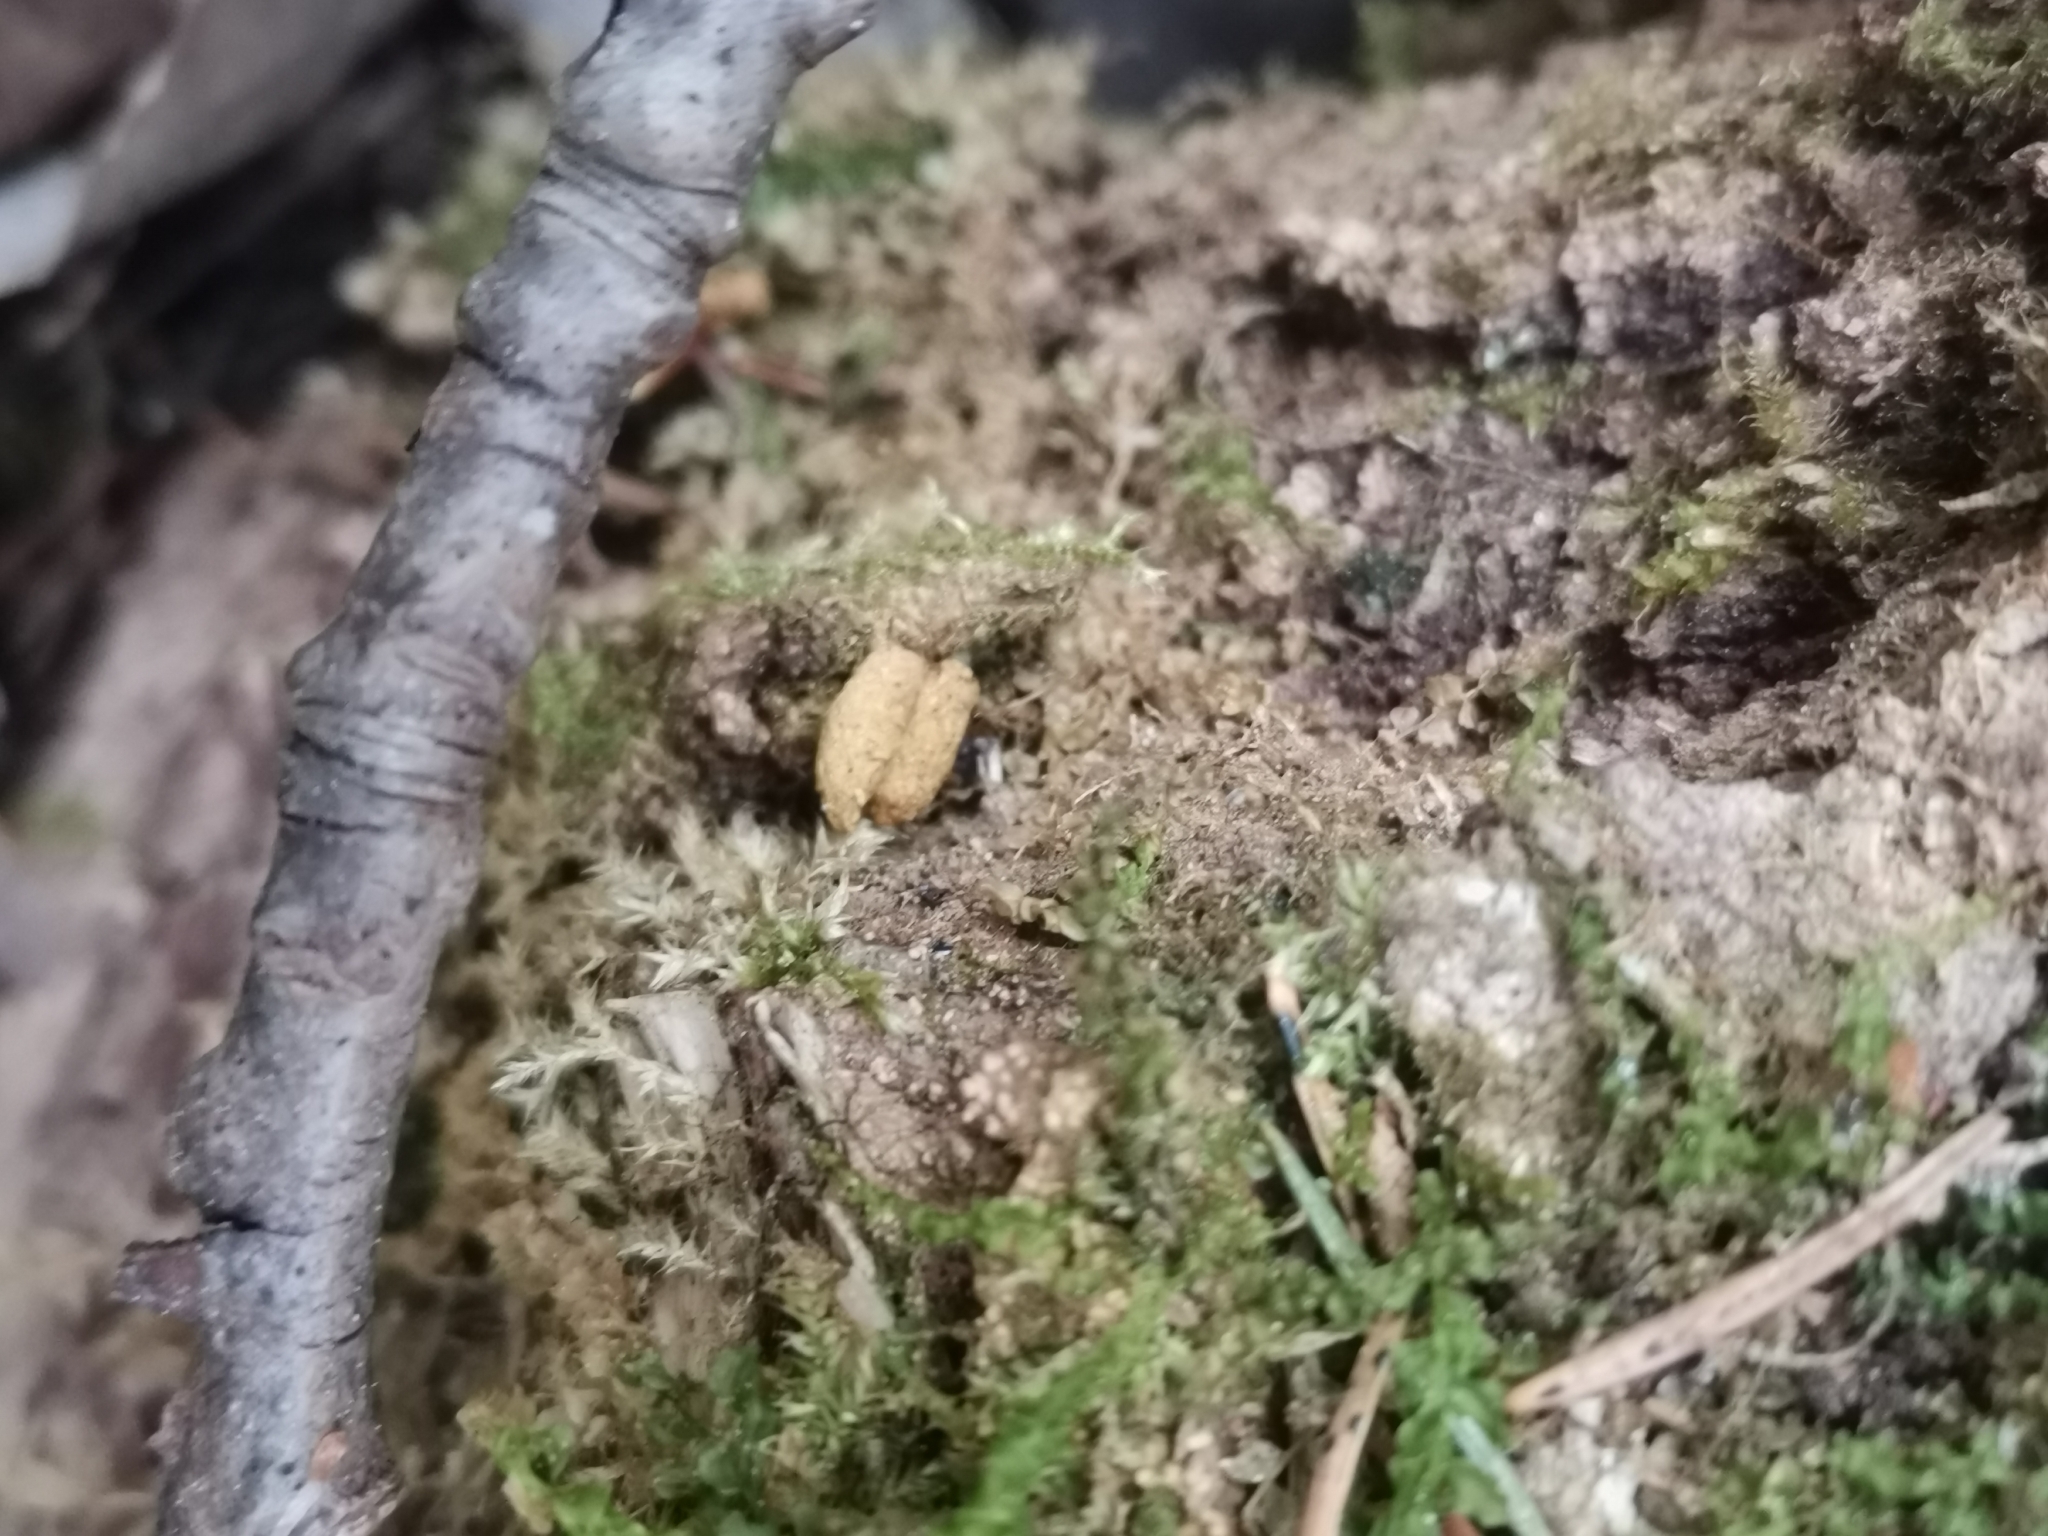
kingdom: Animalia
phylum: Chordata
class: Mammalia
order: Rodentia
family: Sciuridae
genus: Pteromys
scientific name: Pteromys volans
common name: Siberian flying squirrel
